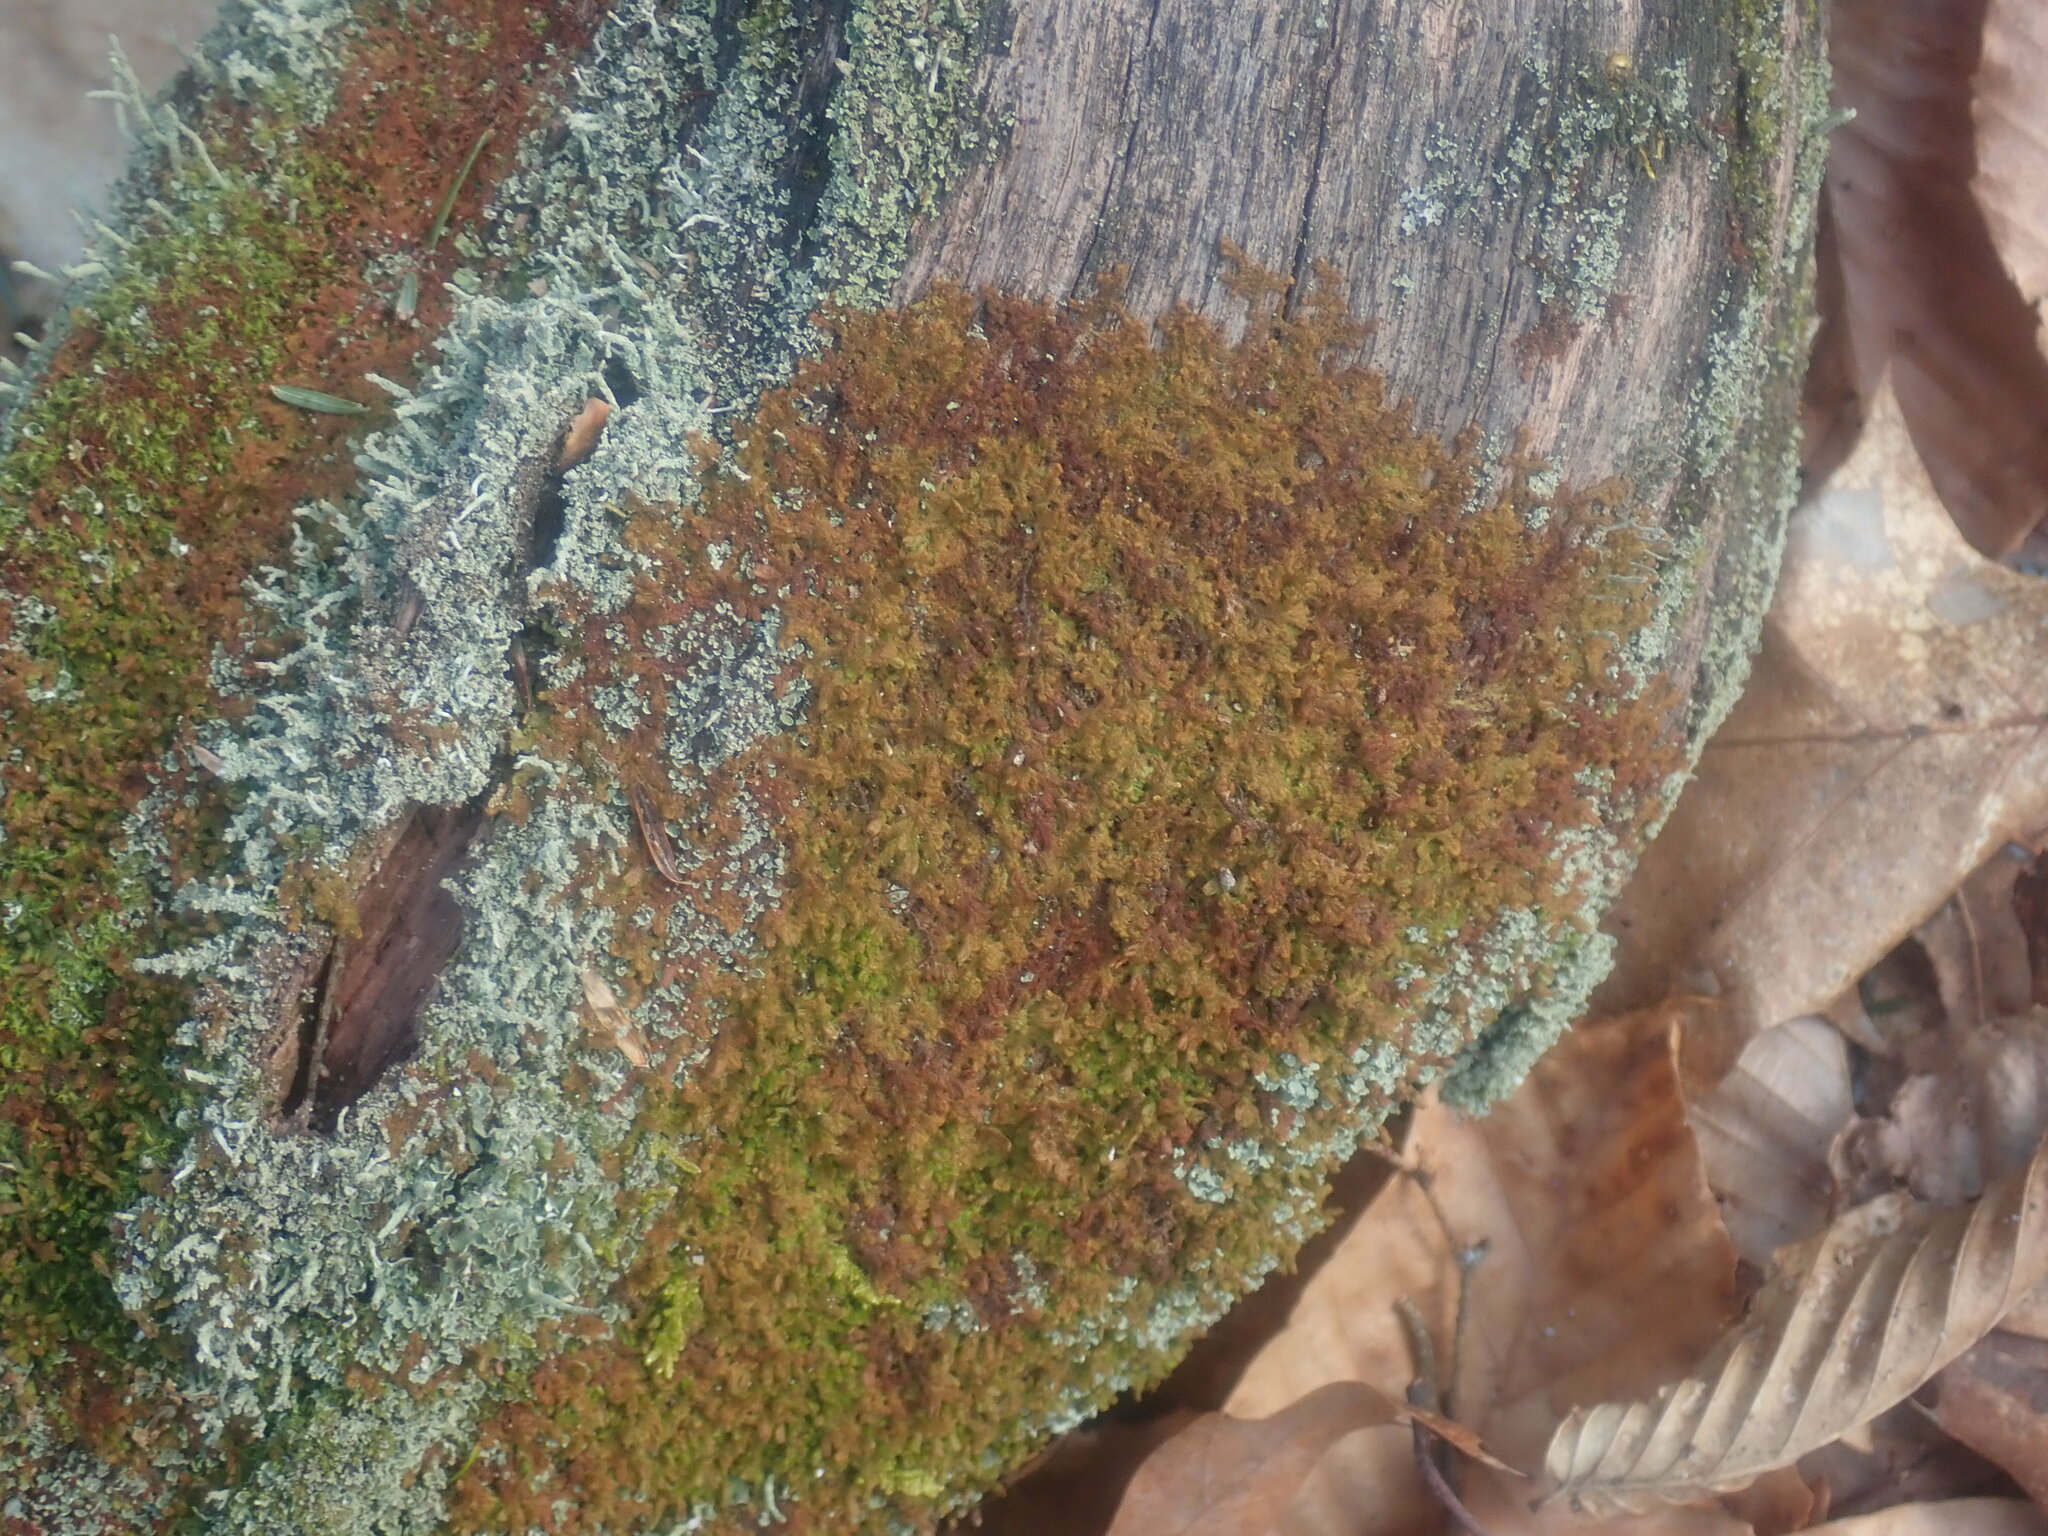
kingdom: Plantae
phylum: Marchantiophyta
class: Jungermanniopsida
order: Ptilidiales
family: Ptilidiaceae
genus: Ptilidium
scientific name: Ptilidium pulcherrimum
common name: Tree fringewort
